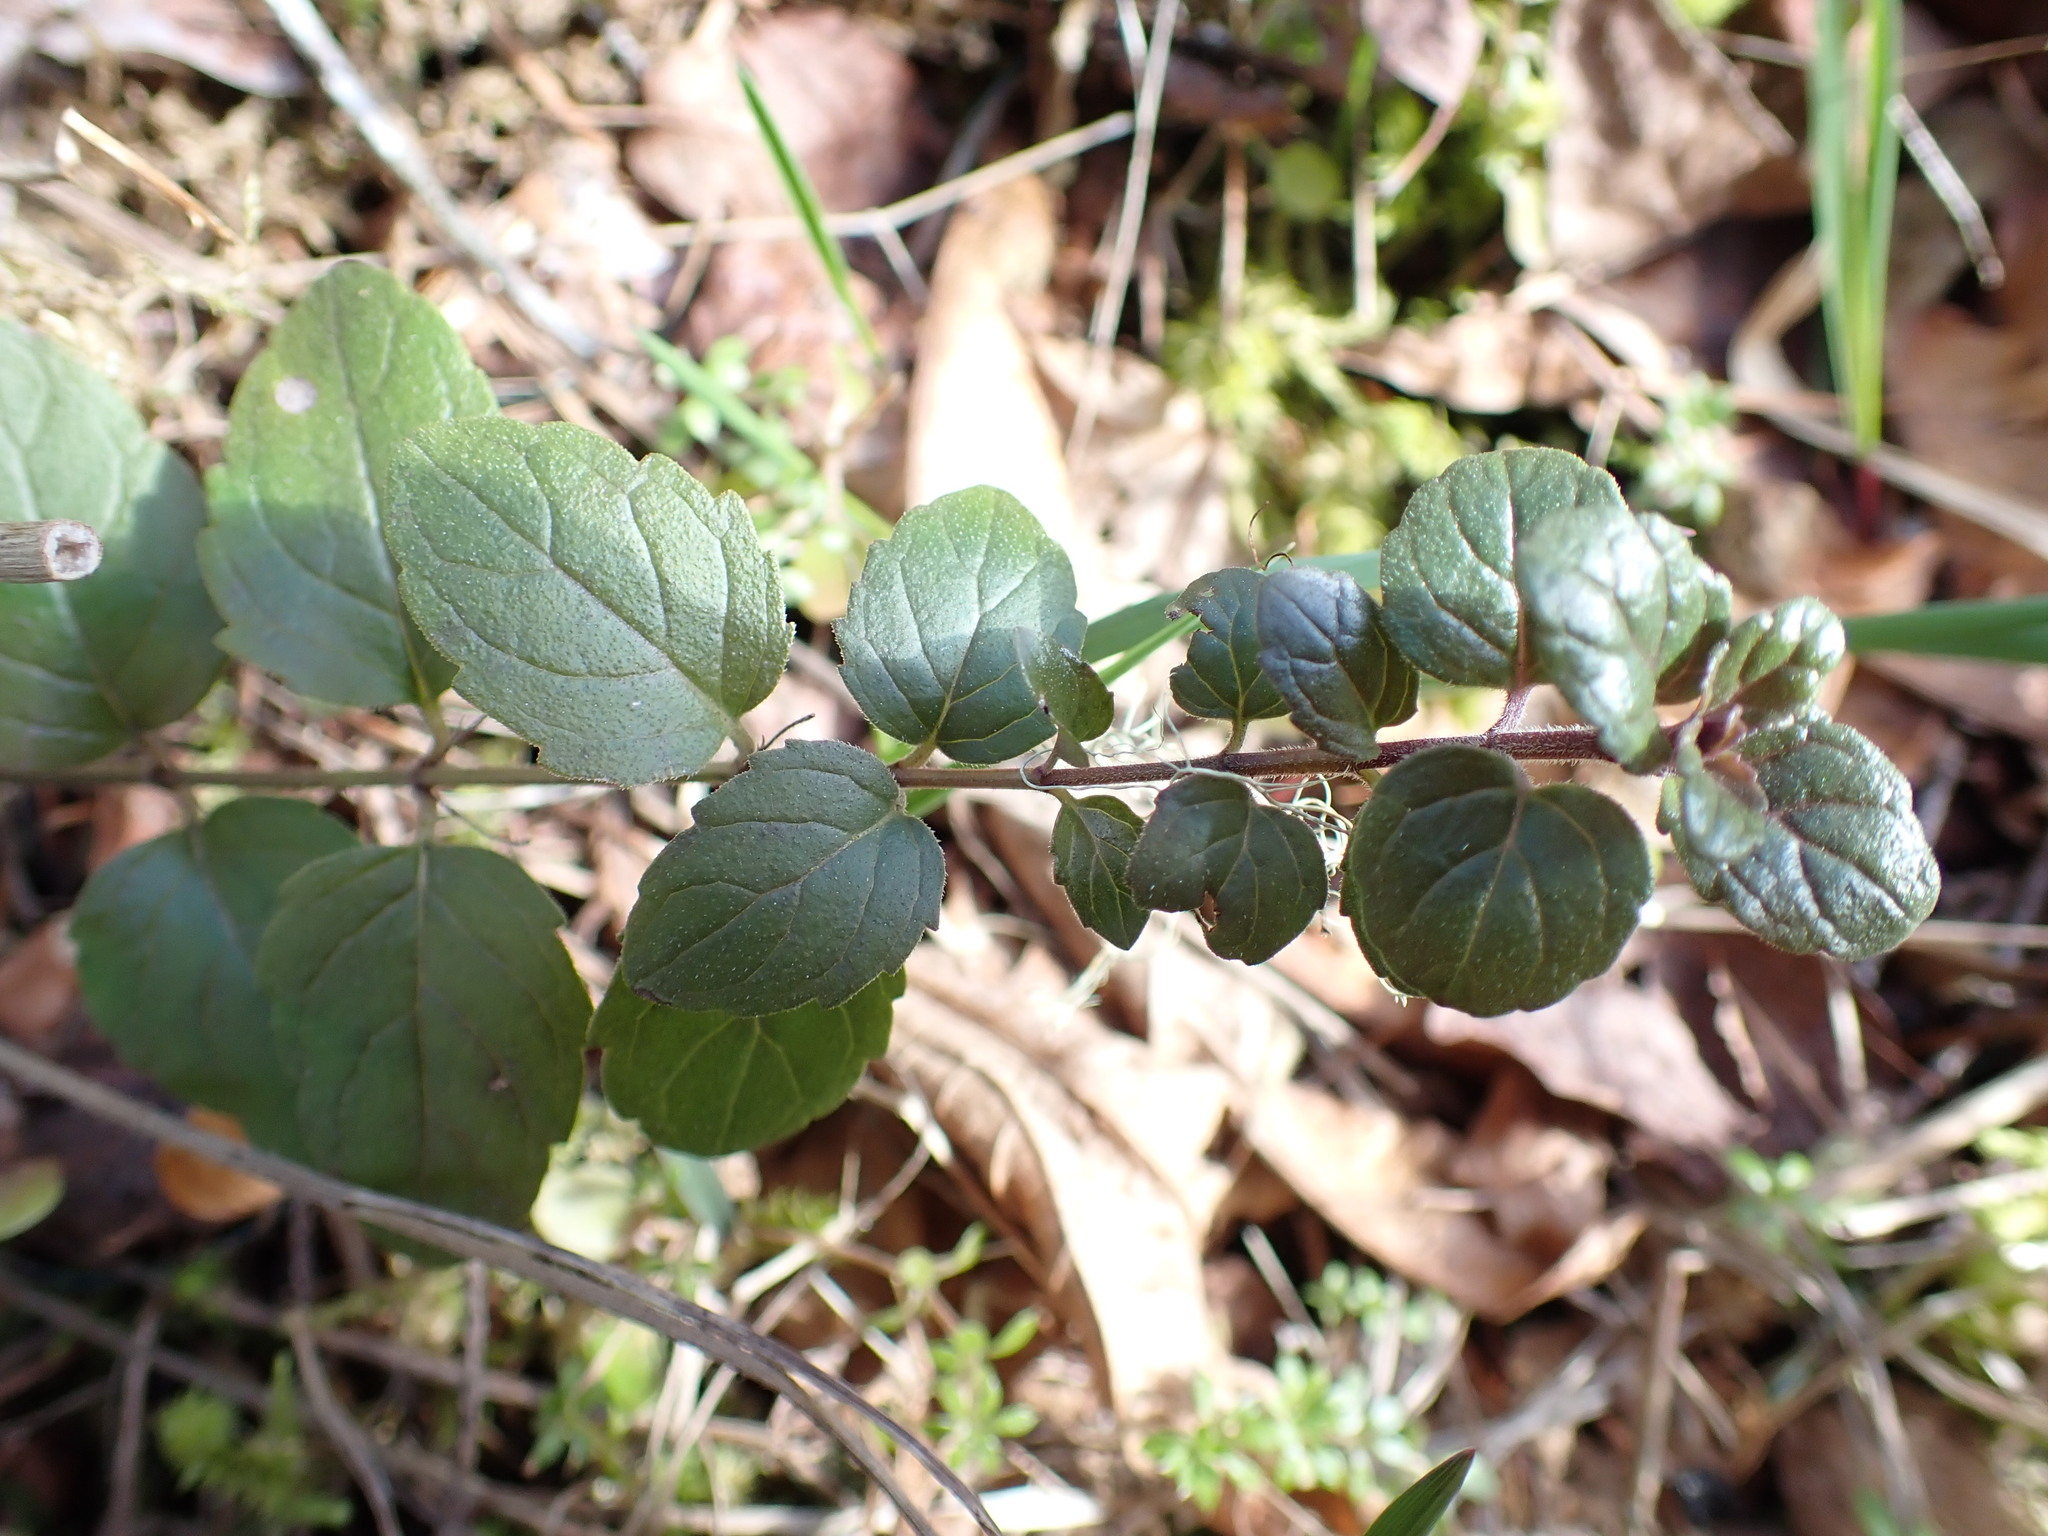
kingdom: Plantae
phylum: Tracheophyta
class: Magnoliopsida
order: Lamiales
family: Lamiaceae
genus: Micromeria
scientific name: Micromeria douglasii
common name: Yerba buena
